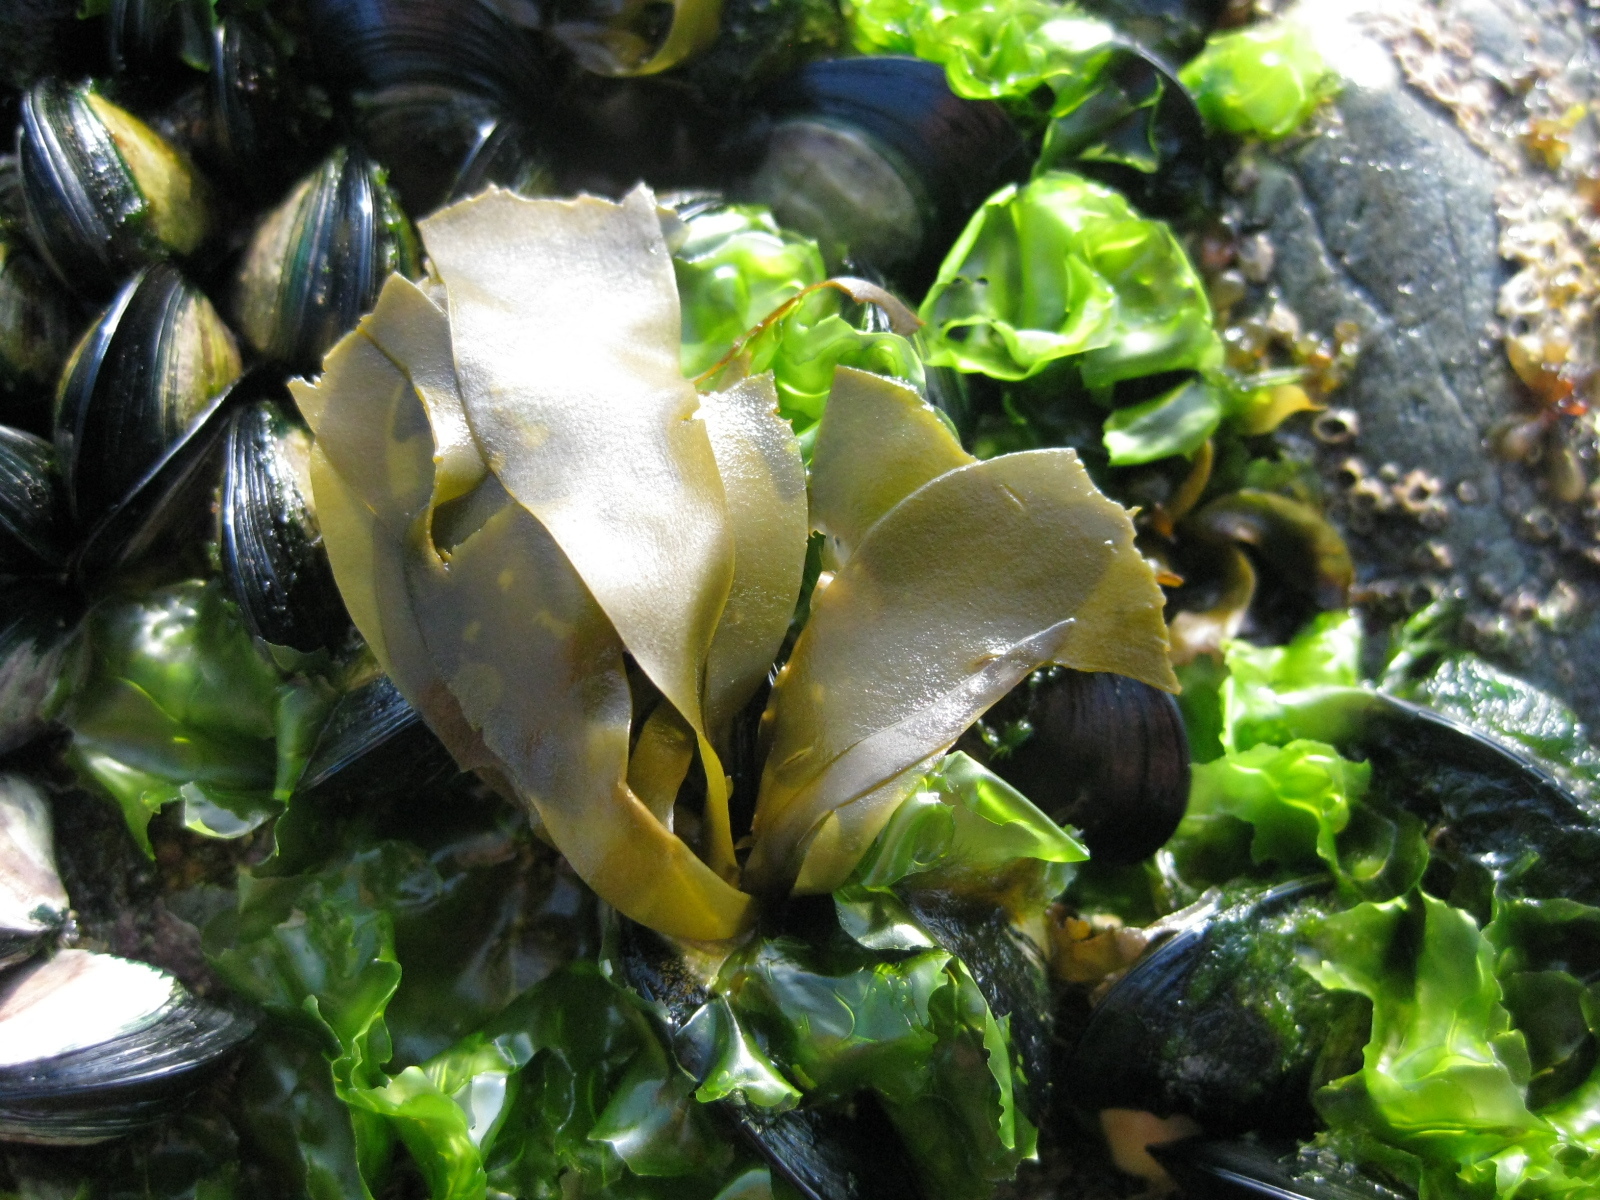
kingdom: Chromista
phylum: Ochrophyta
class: Phaeophyceae
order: Scytosiphonales
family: Scytosiphonaceae
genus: Petalonia
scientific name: Petalonia binghamiae
